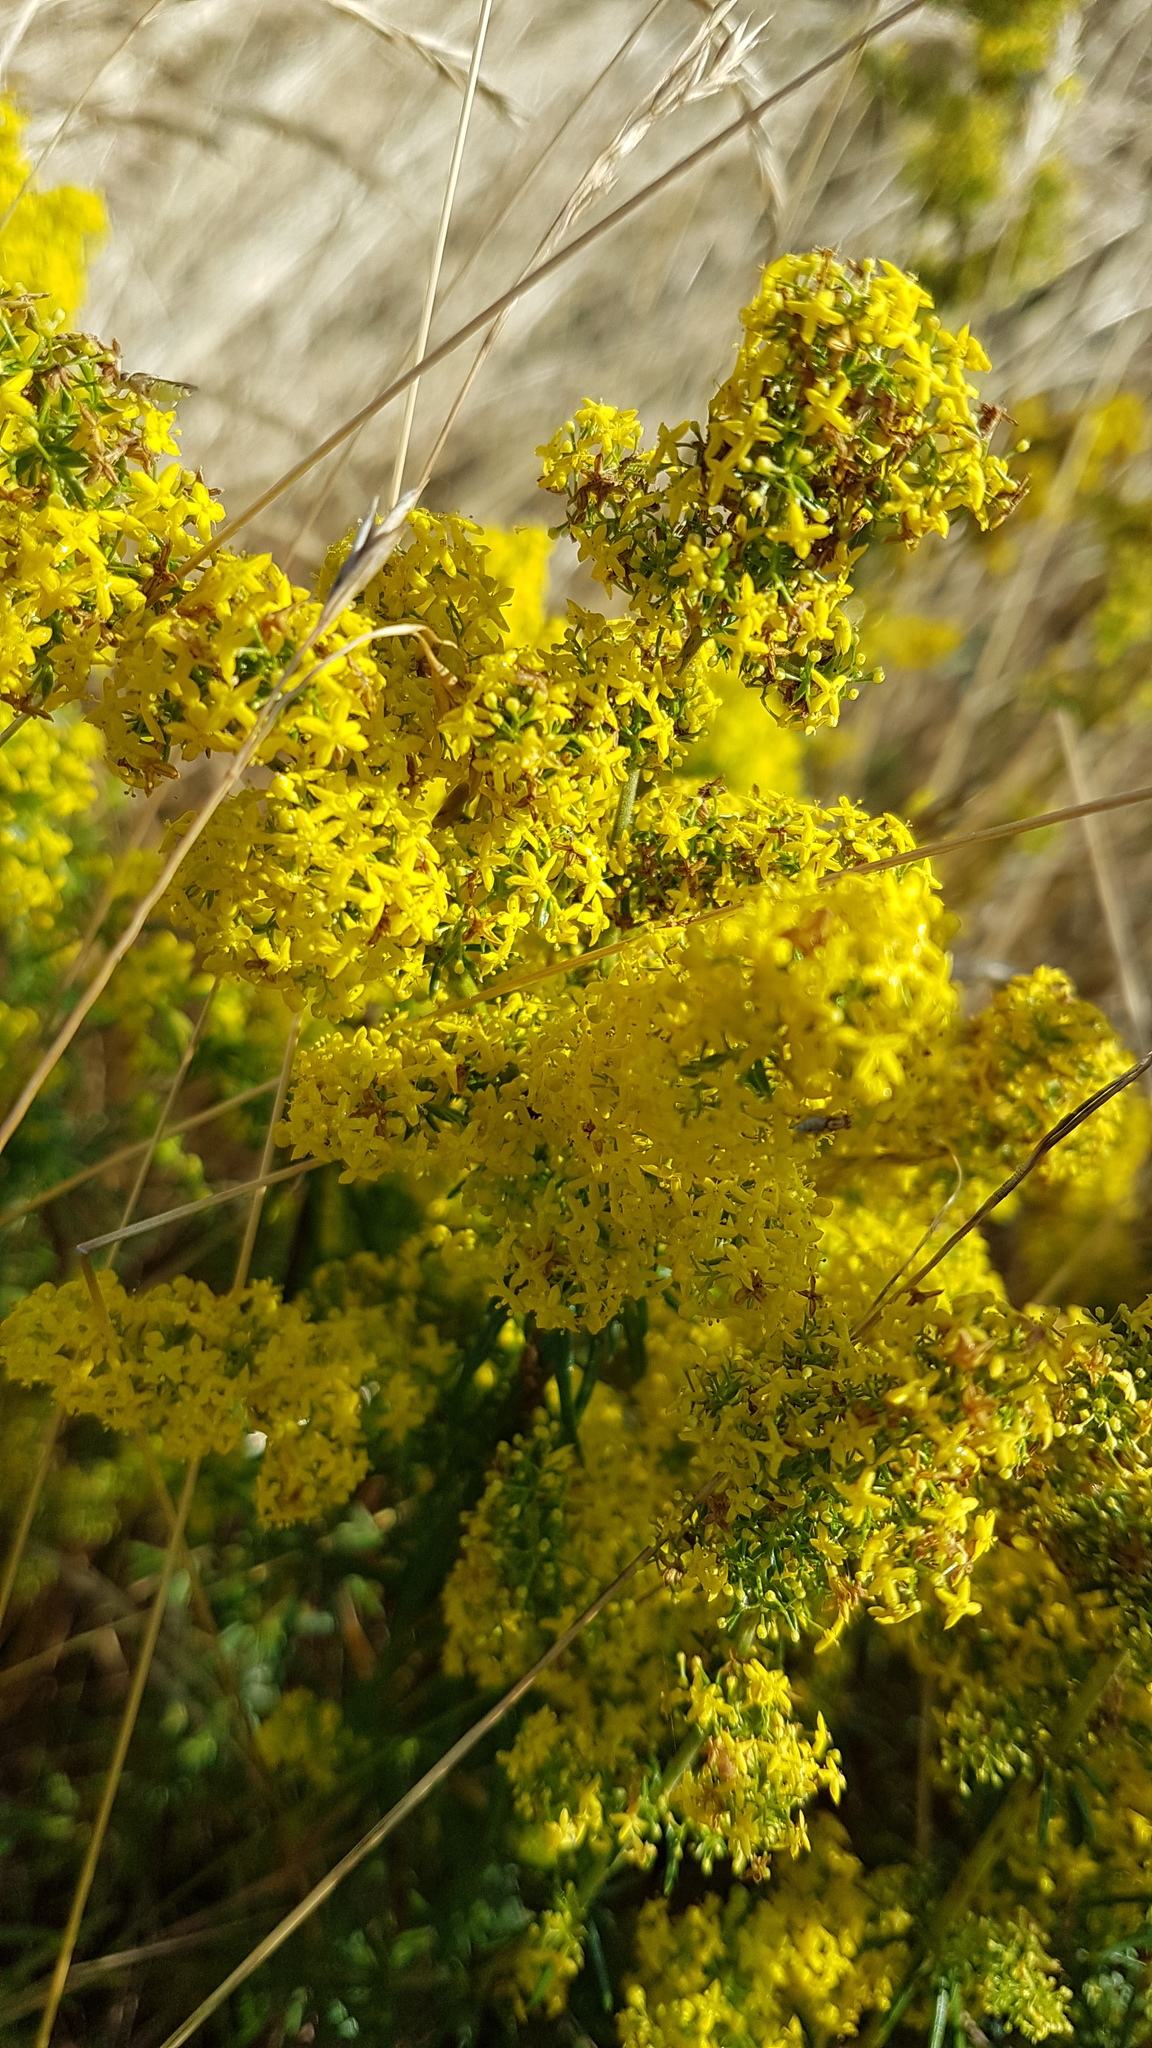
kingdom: Plantae
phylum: Tracheophyta
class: Magnoliopsida
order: Gentianales
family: Rubiaceae
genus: Galium
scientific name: Galium verum
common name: Lady's bedstraw
